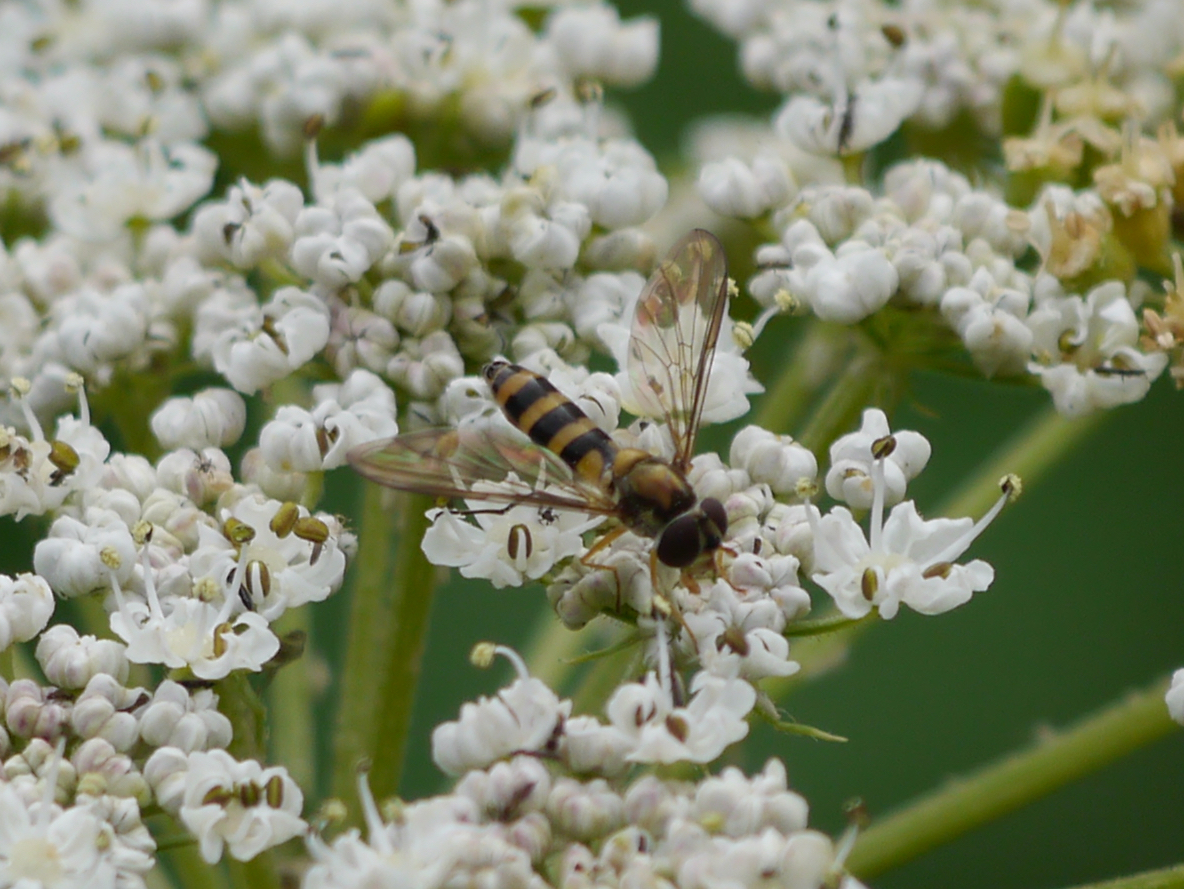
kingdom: Animalia
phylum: Arthropoda
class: Insecta
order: Diptera
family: Syrphidae
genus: Meliscaeva
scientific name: Meliscaeva cinctella
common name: American thintail fly
